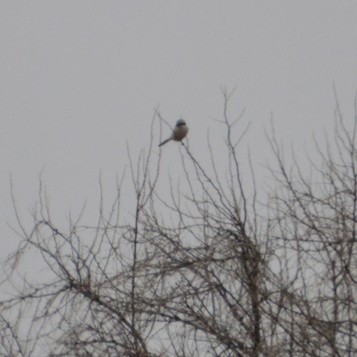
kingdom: Animalia
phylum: Chordata
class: Aves
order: Passeriformes
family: Laniidae
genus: Lanius
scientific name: Lanius excubitor
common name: Great grey shrike
